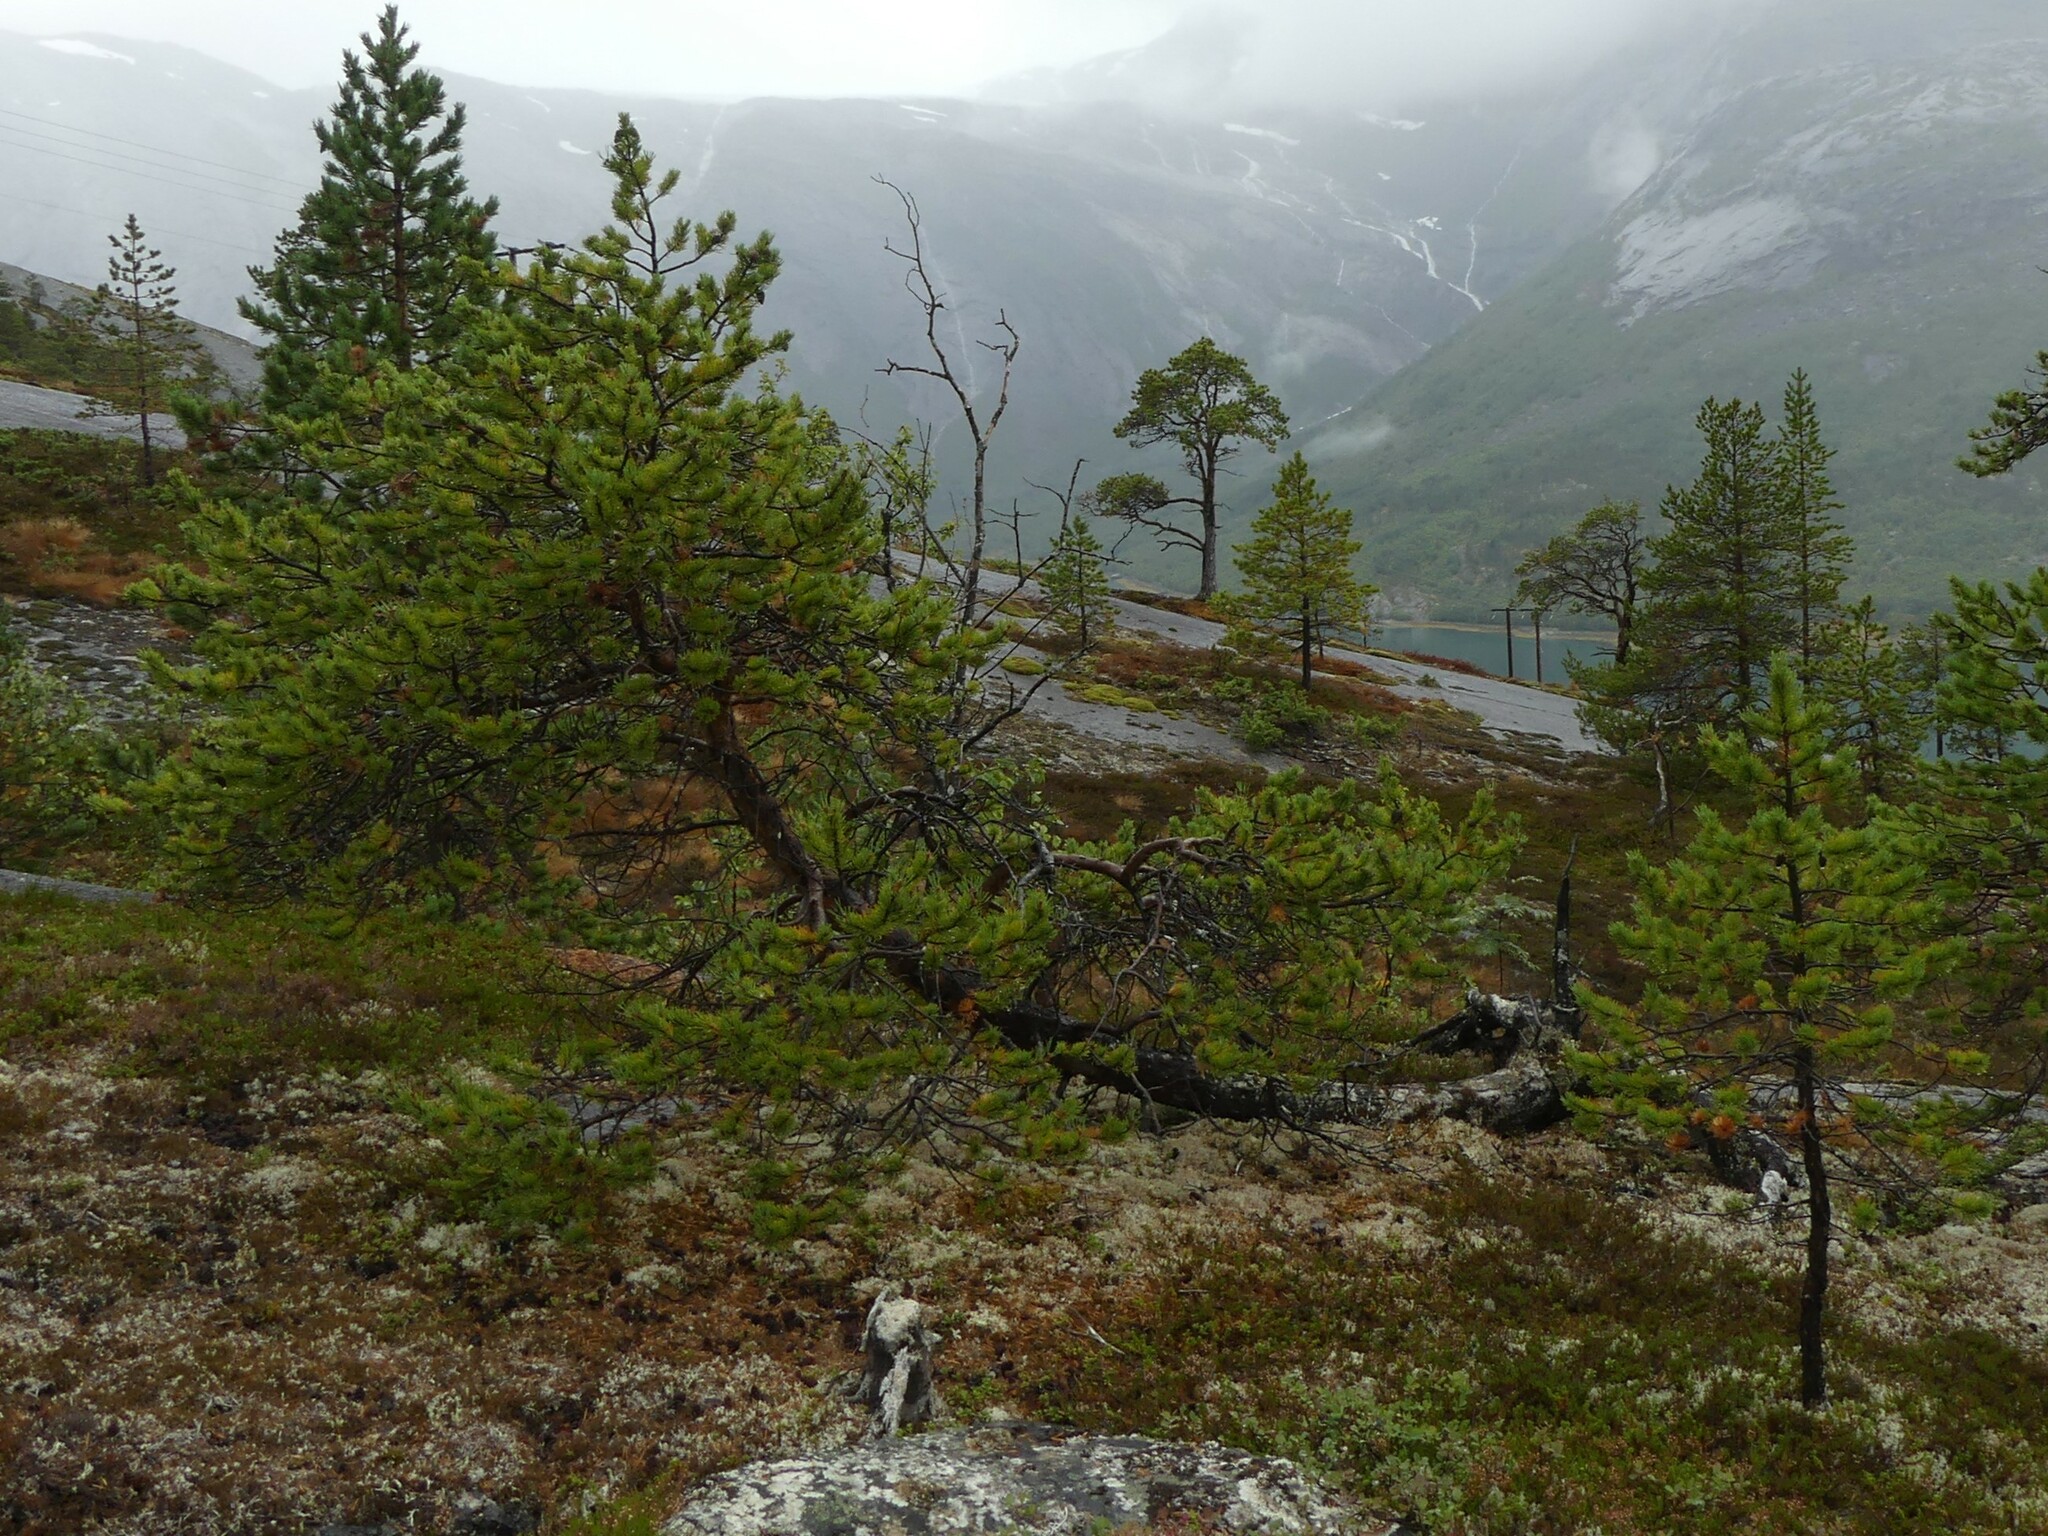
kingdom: Plantae
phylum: Tracheophyta
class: Pinopsida
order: Pinales
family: Pinaceae
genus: Pinus
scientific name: Pinus sylvestris
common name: Scots pine
